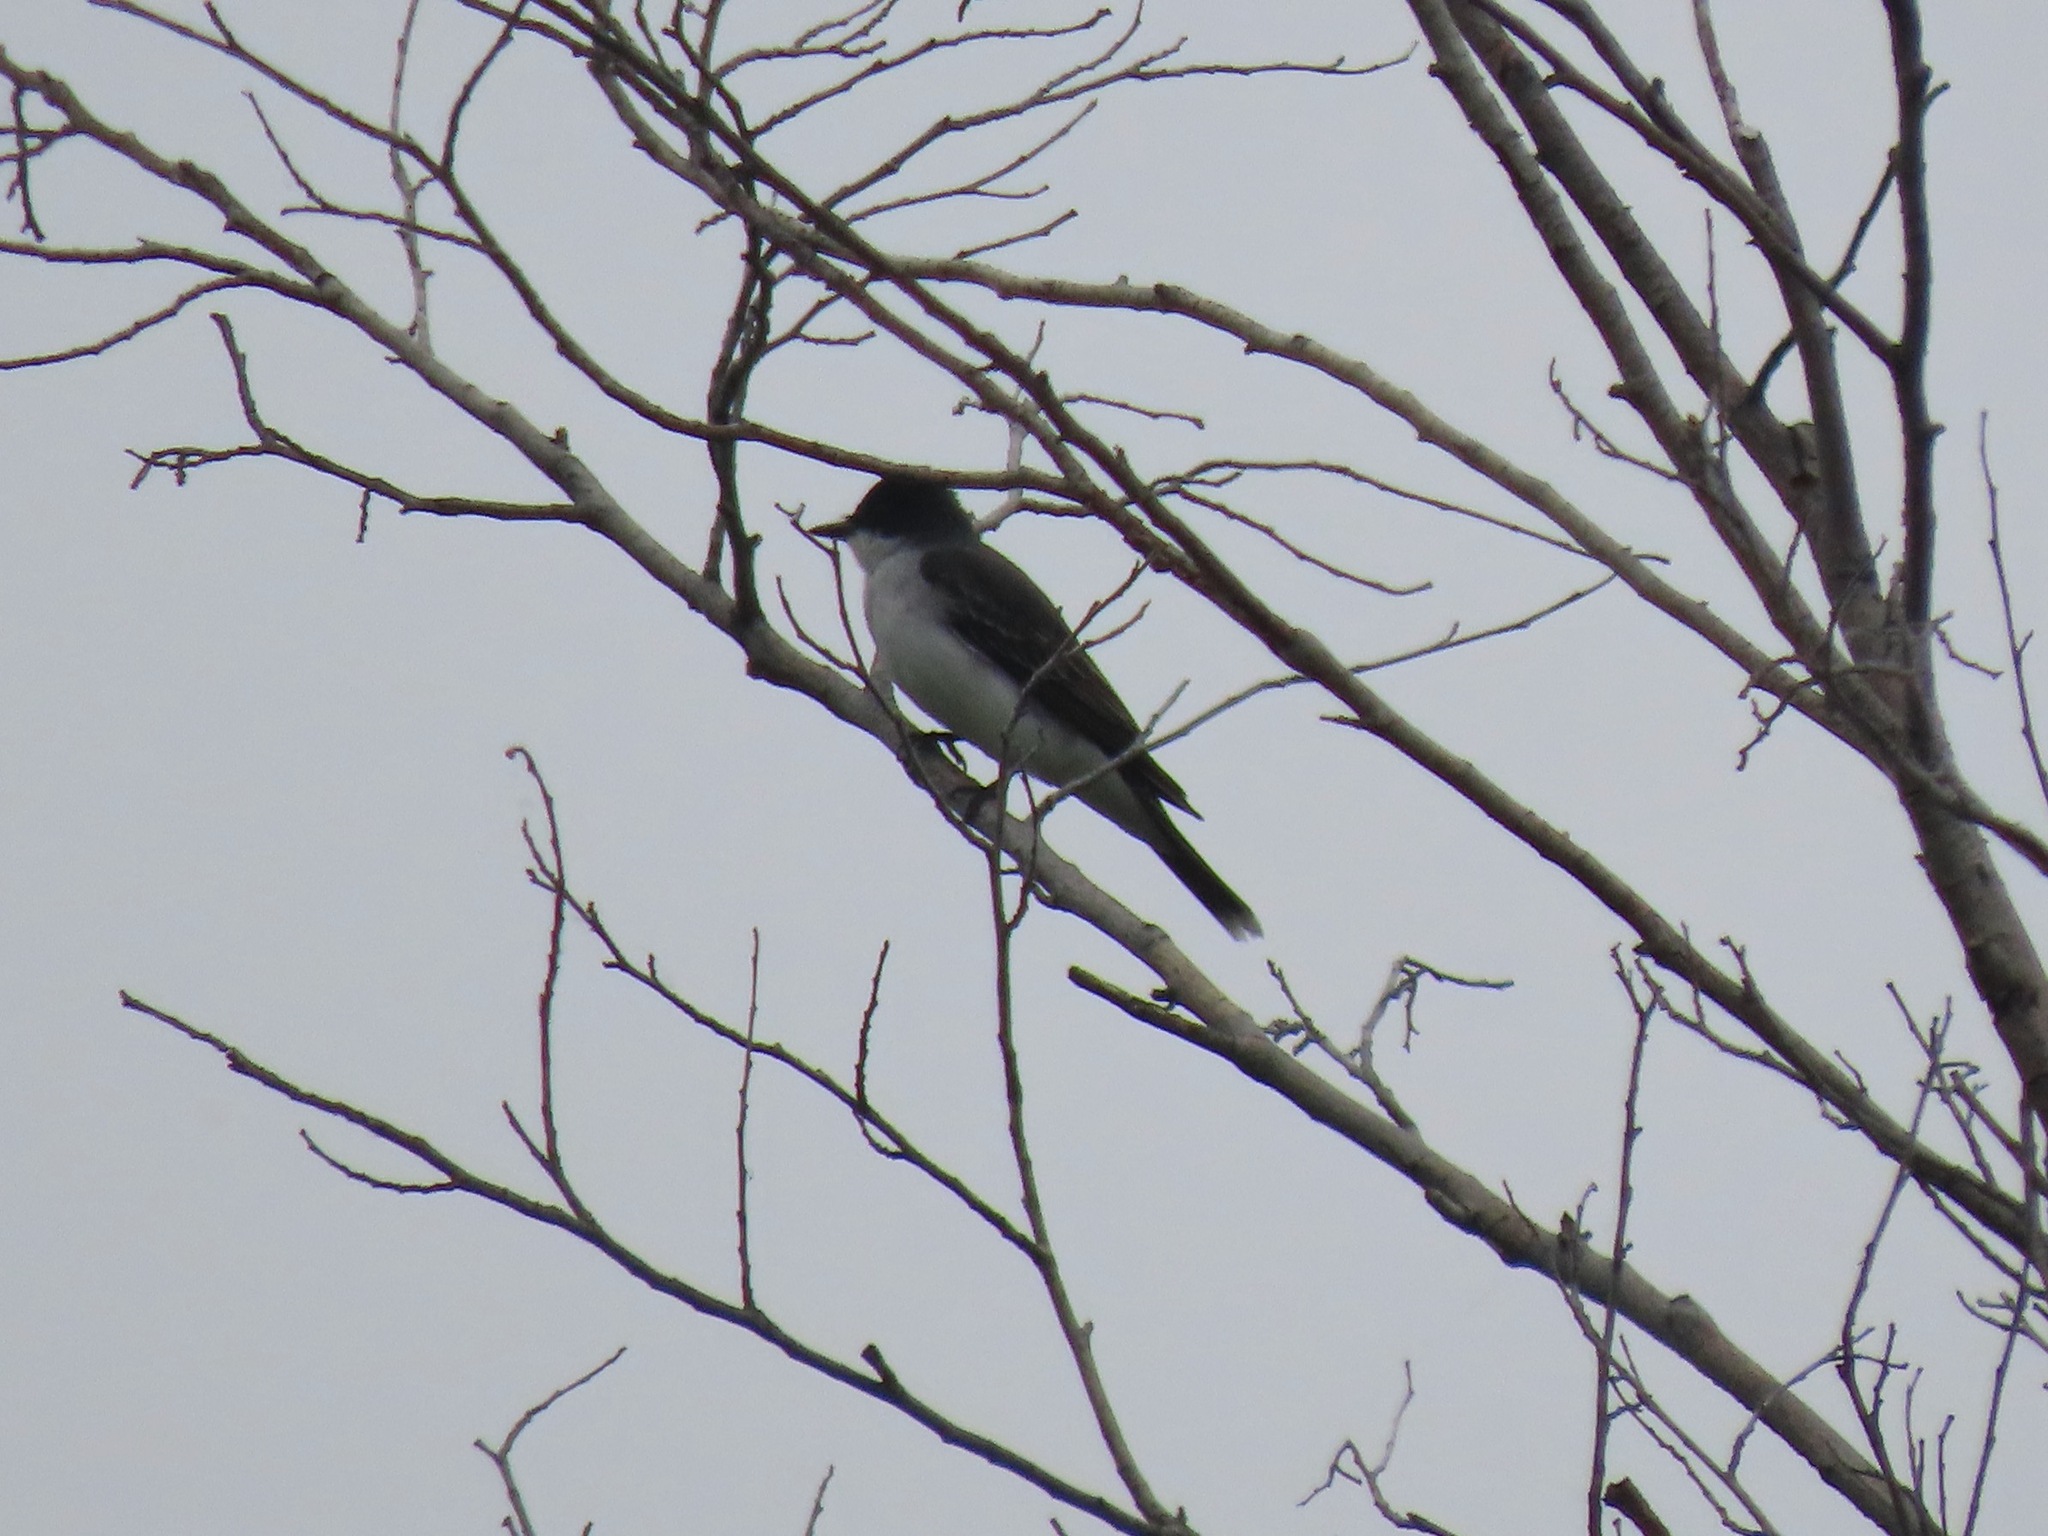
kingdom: Animalia
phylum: Chordata
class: Aves
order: Passeriformes
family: Tyrannidae
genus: Tyrannus
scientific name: Tyrannus tyrannus
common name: Eastern kingbird
